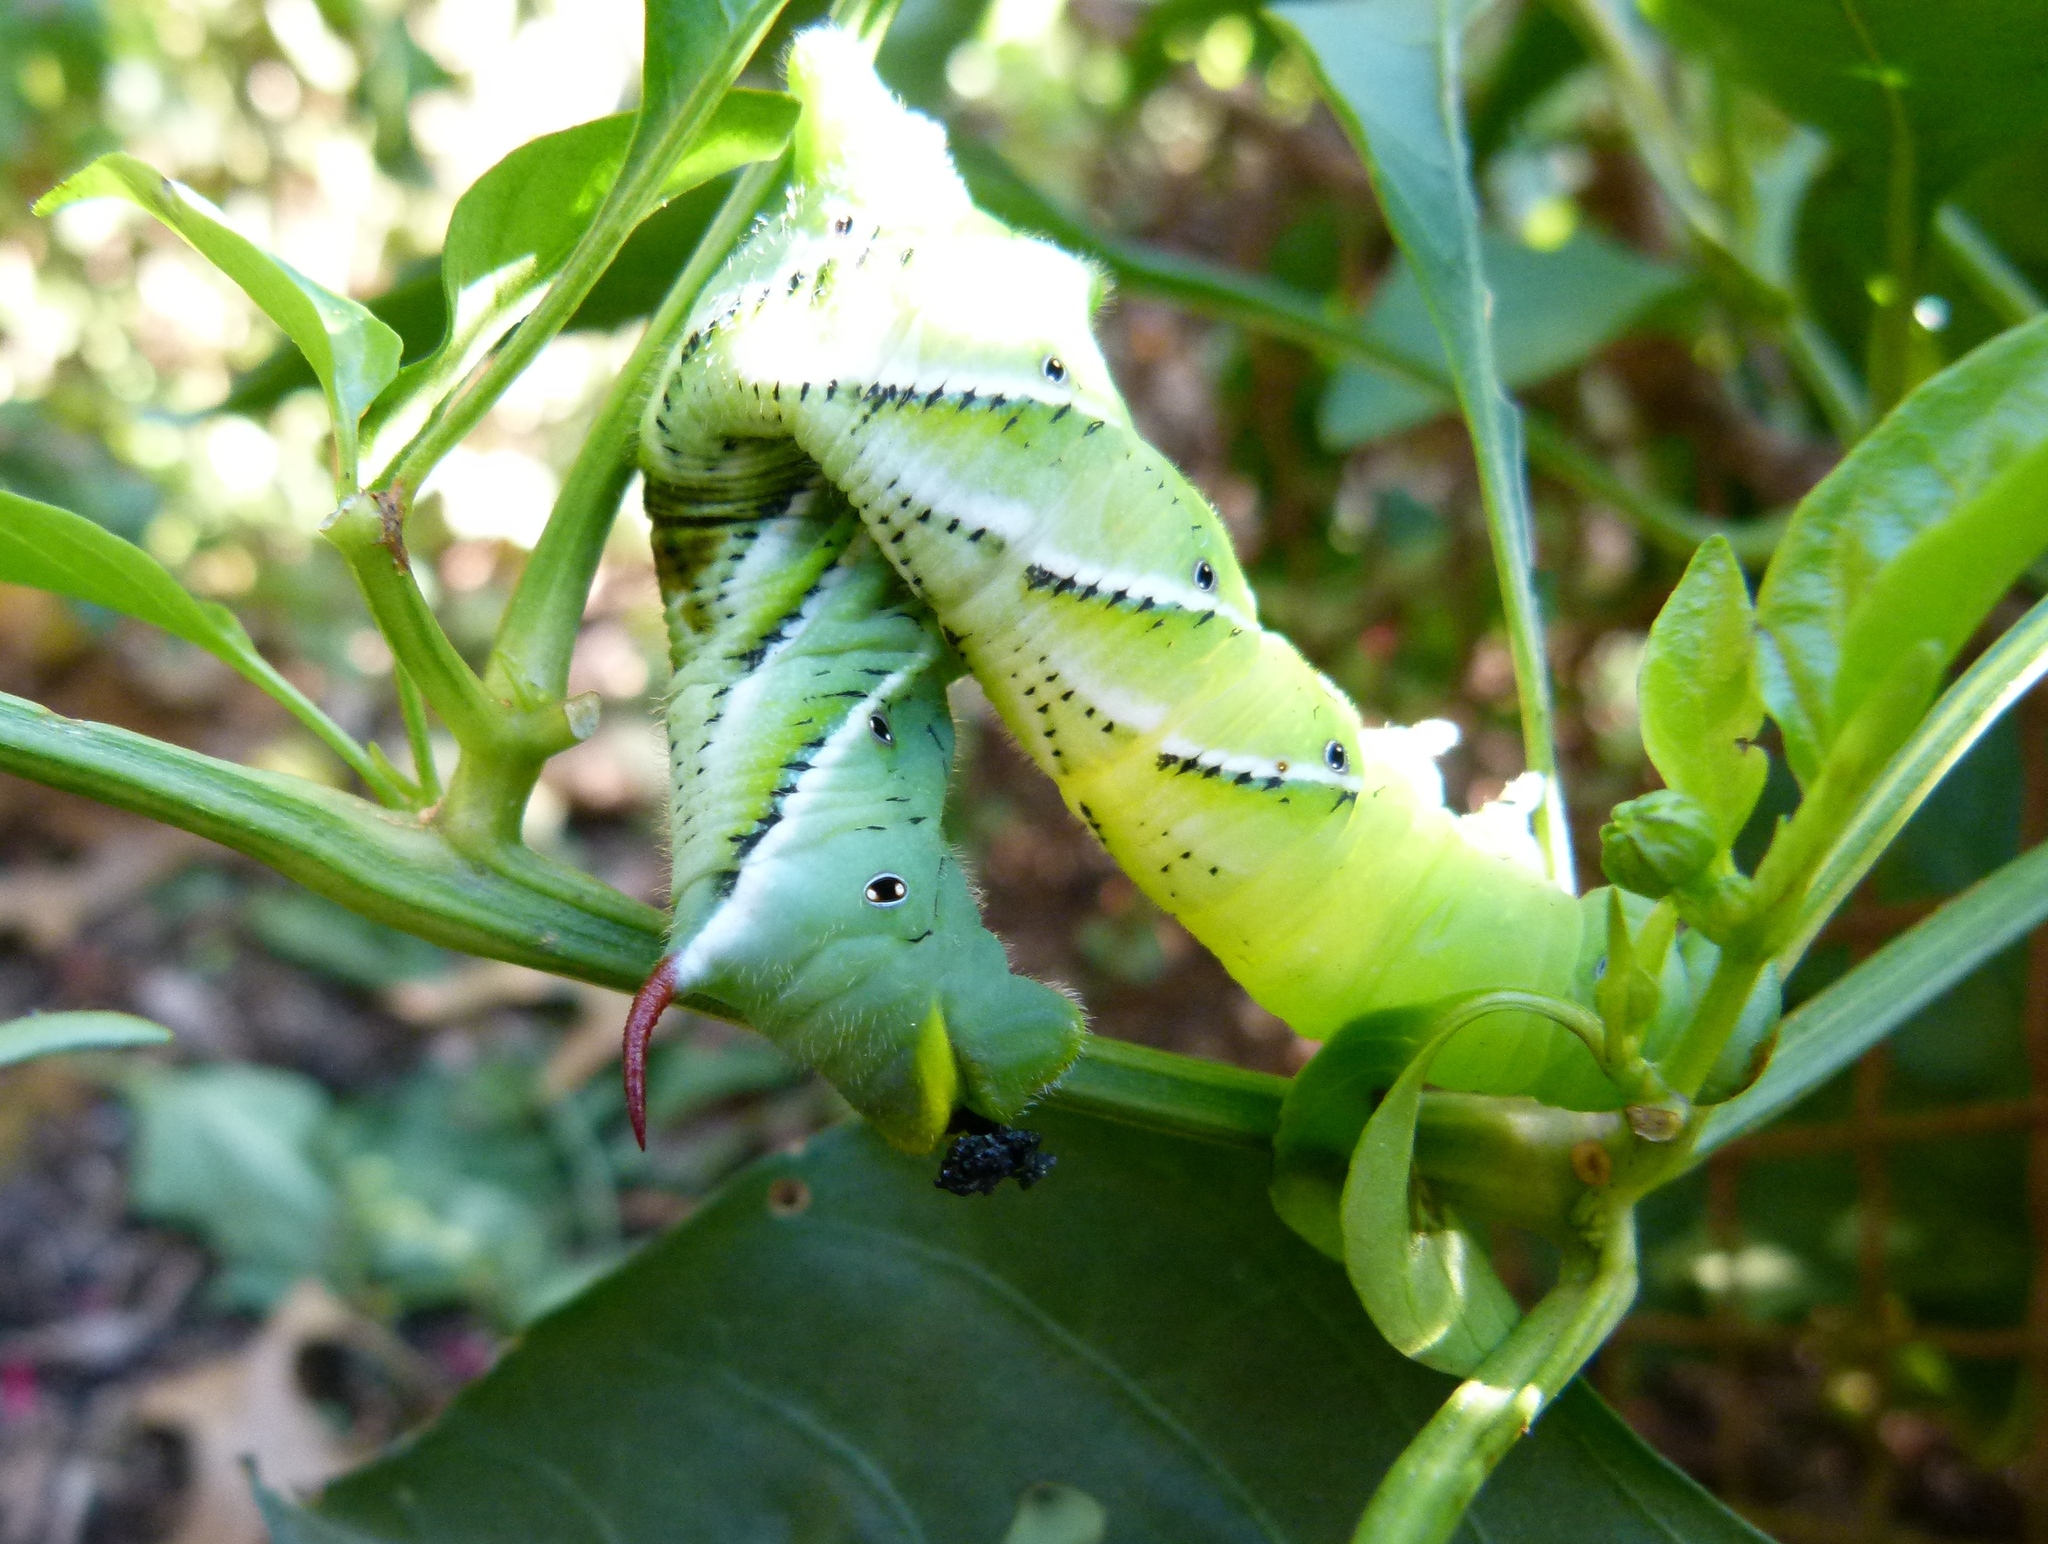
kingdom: Animalia
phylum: Arthropoda
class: Insecta
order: Lepidoptera
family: Sphingidae
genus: Manduca
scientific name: Manduca sexta
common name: Carolina sphinx
